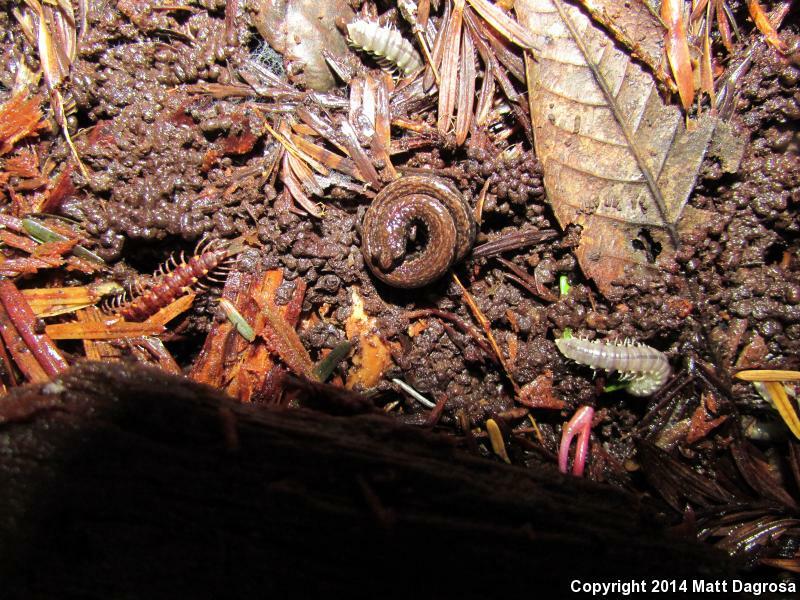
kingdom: Animalia
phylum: Chordata
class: Amphibia
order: Caudata
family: Plethodontidae
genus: Batrachoseps
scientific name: Batrachoseps attenuatus
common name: California slender salamander
